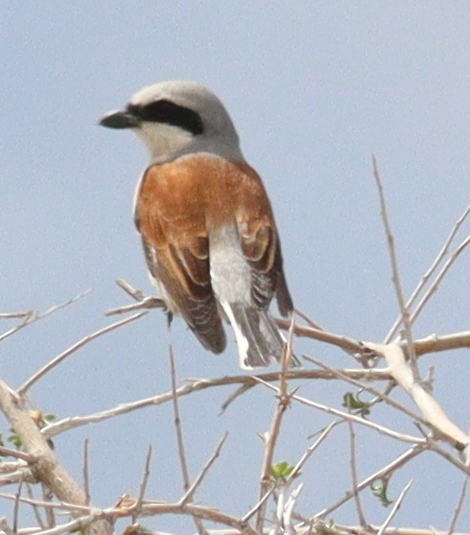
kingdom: Animalia
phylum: Chordata
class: Aves
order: Passeriformes
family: Laniidae
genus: Lanius
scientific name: Lanius collurio
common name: Red-backed shrike
